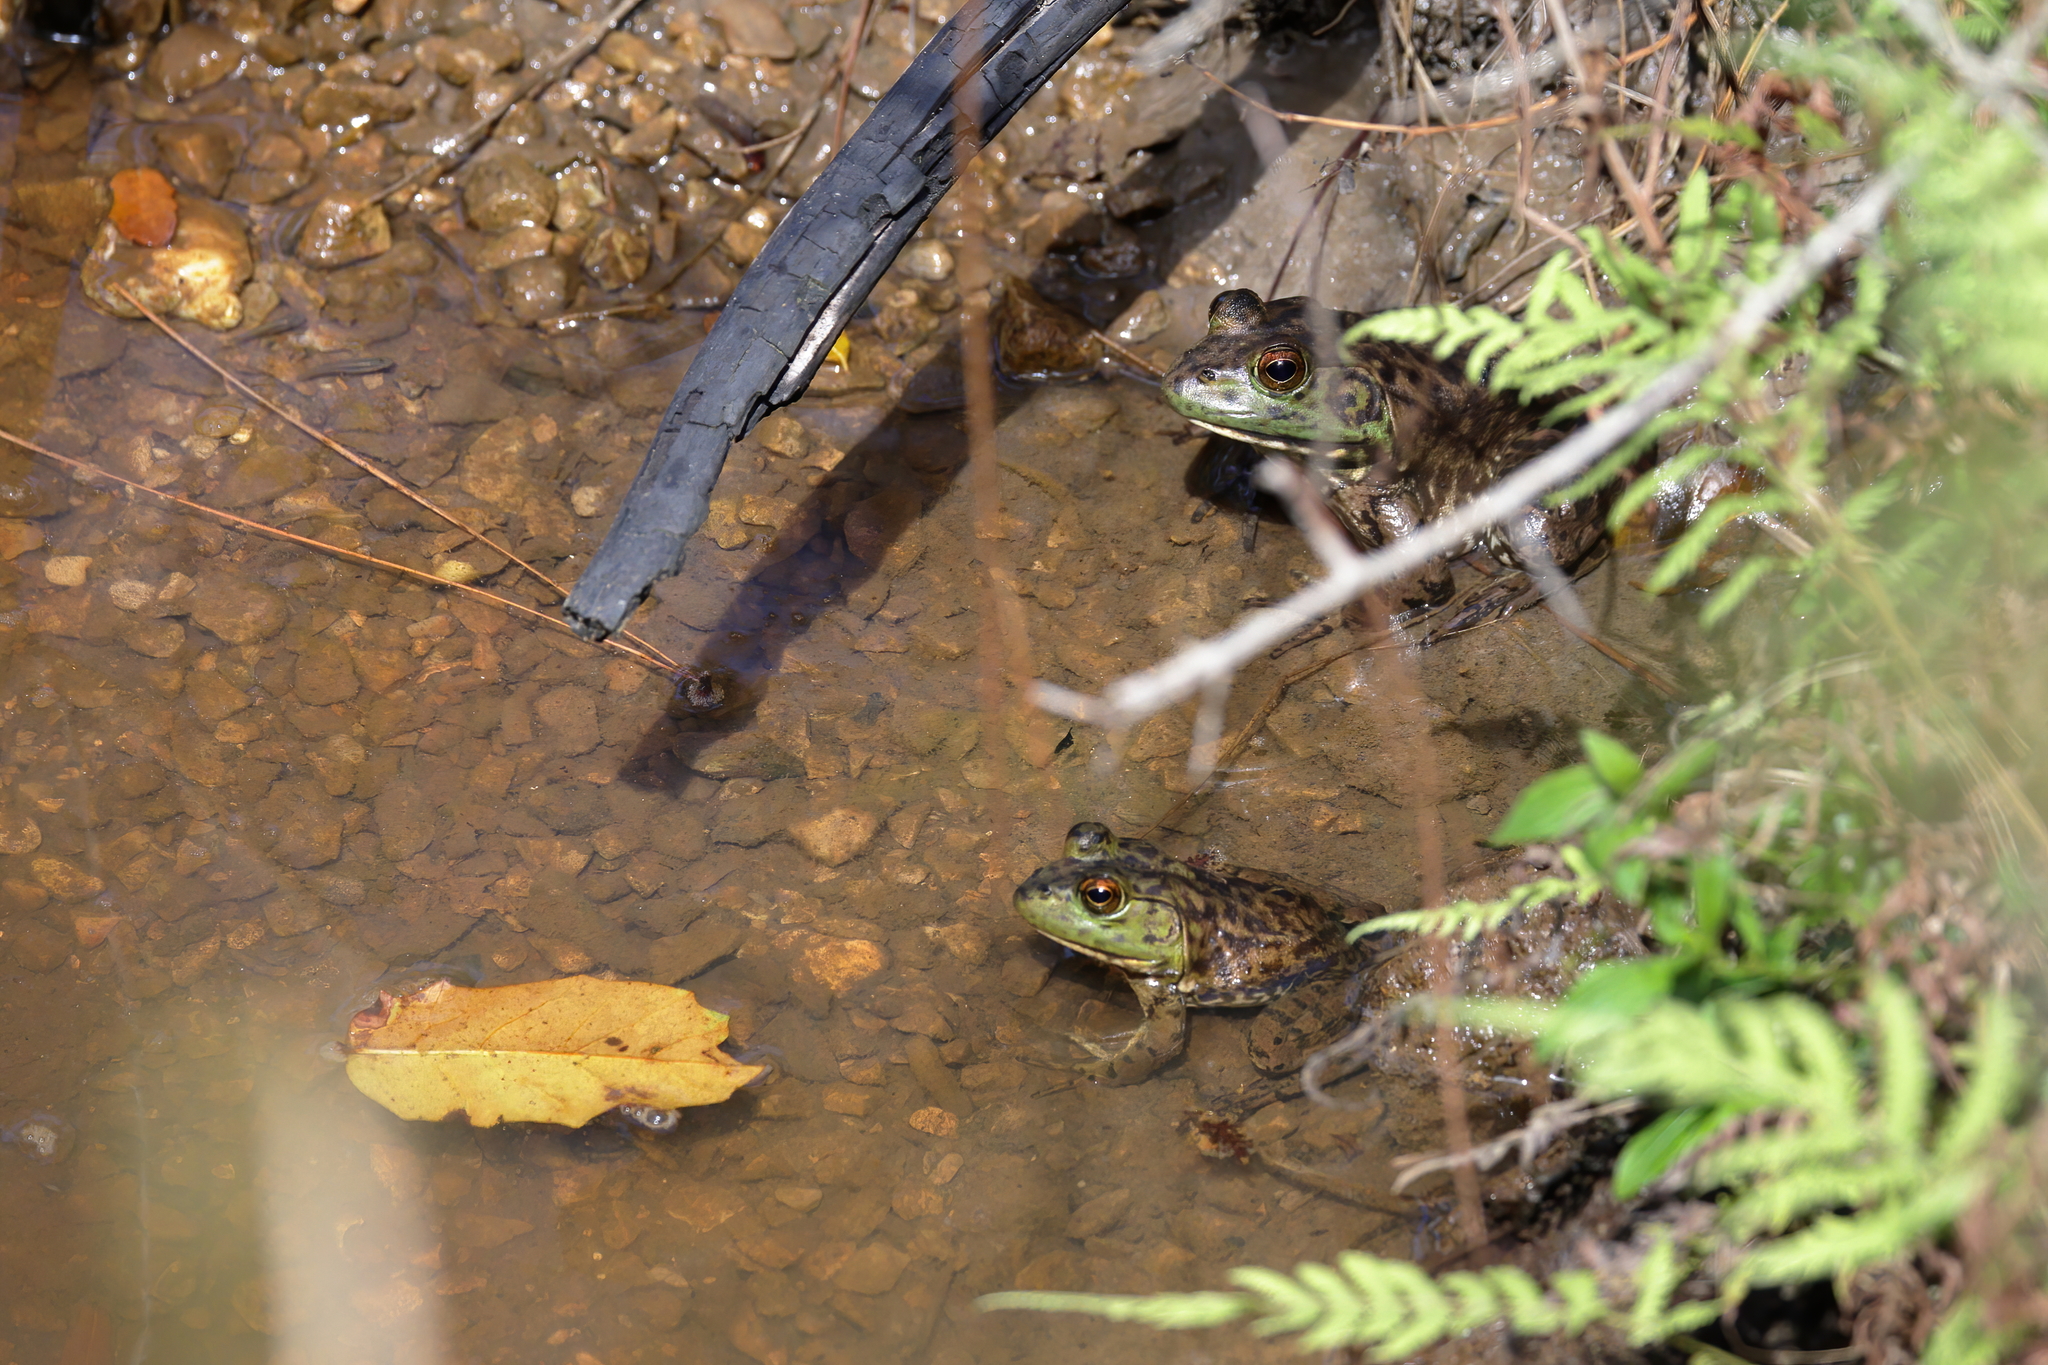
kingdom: Animalia
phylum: Chordata
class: Amphibia
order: Anura
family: Ranidae
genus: Lithobates
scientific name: Lithobates catesbeianus
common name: American bullfrog
